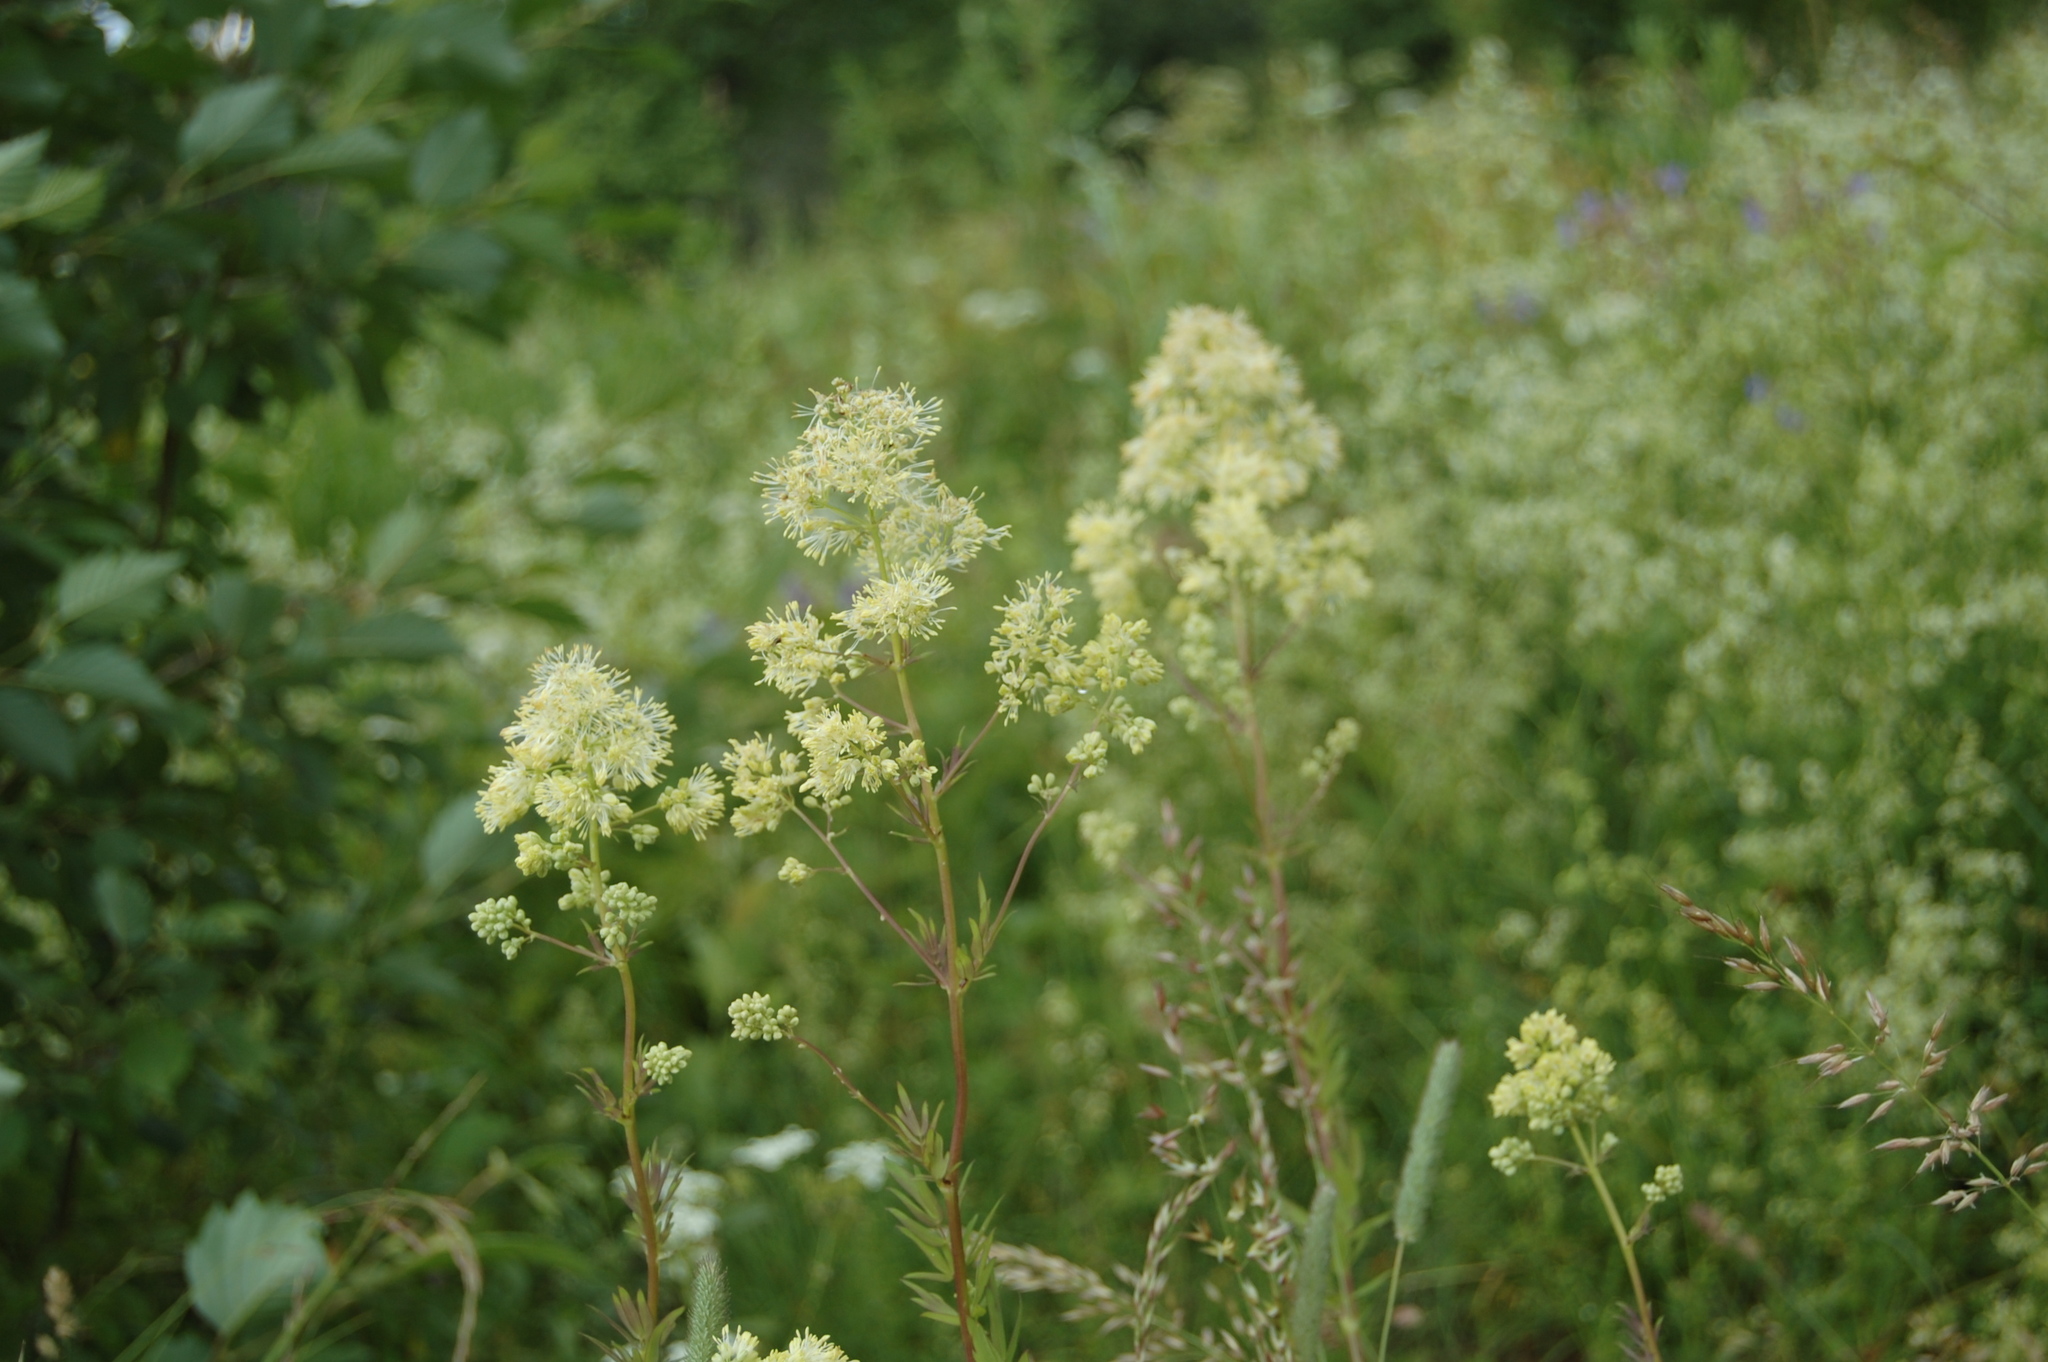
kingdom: Plantae
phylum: Tracheophyta
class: Magnoliopsida
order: Ranunculales
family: Ranunculaceae
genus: Thalictrum
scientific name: Thalictrum flavum
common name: Common meadow-rue
